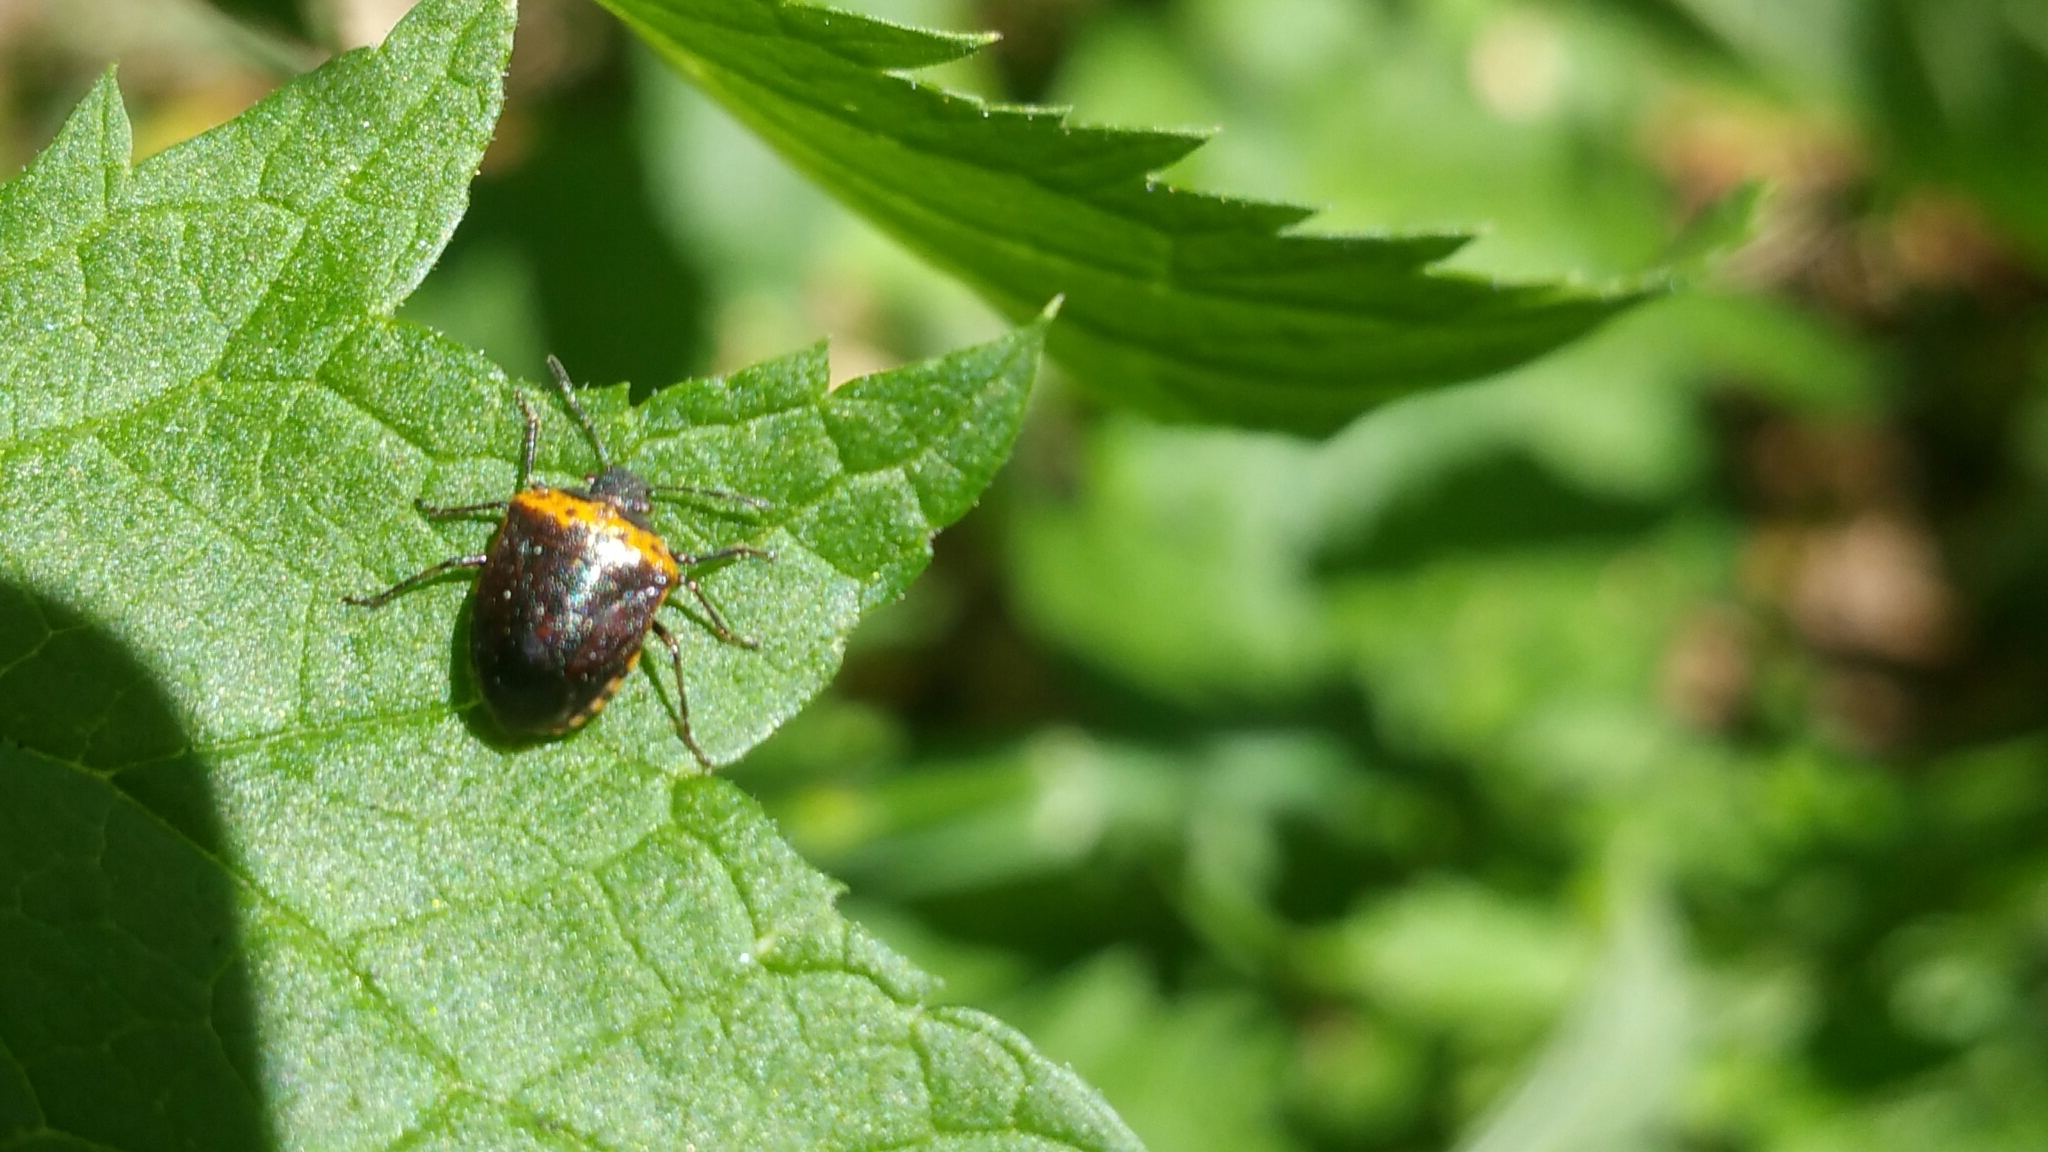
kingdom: Animalia
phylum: Arthropoda
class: Insecta
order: Hemiptera
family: Pentatomidae
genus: Cosmopepla
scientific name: Cosmopepla uhleri
